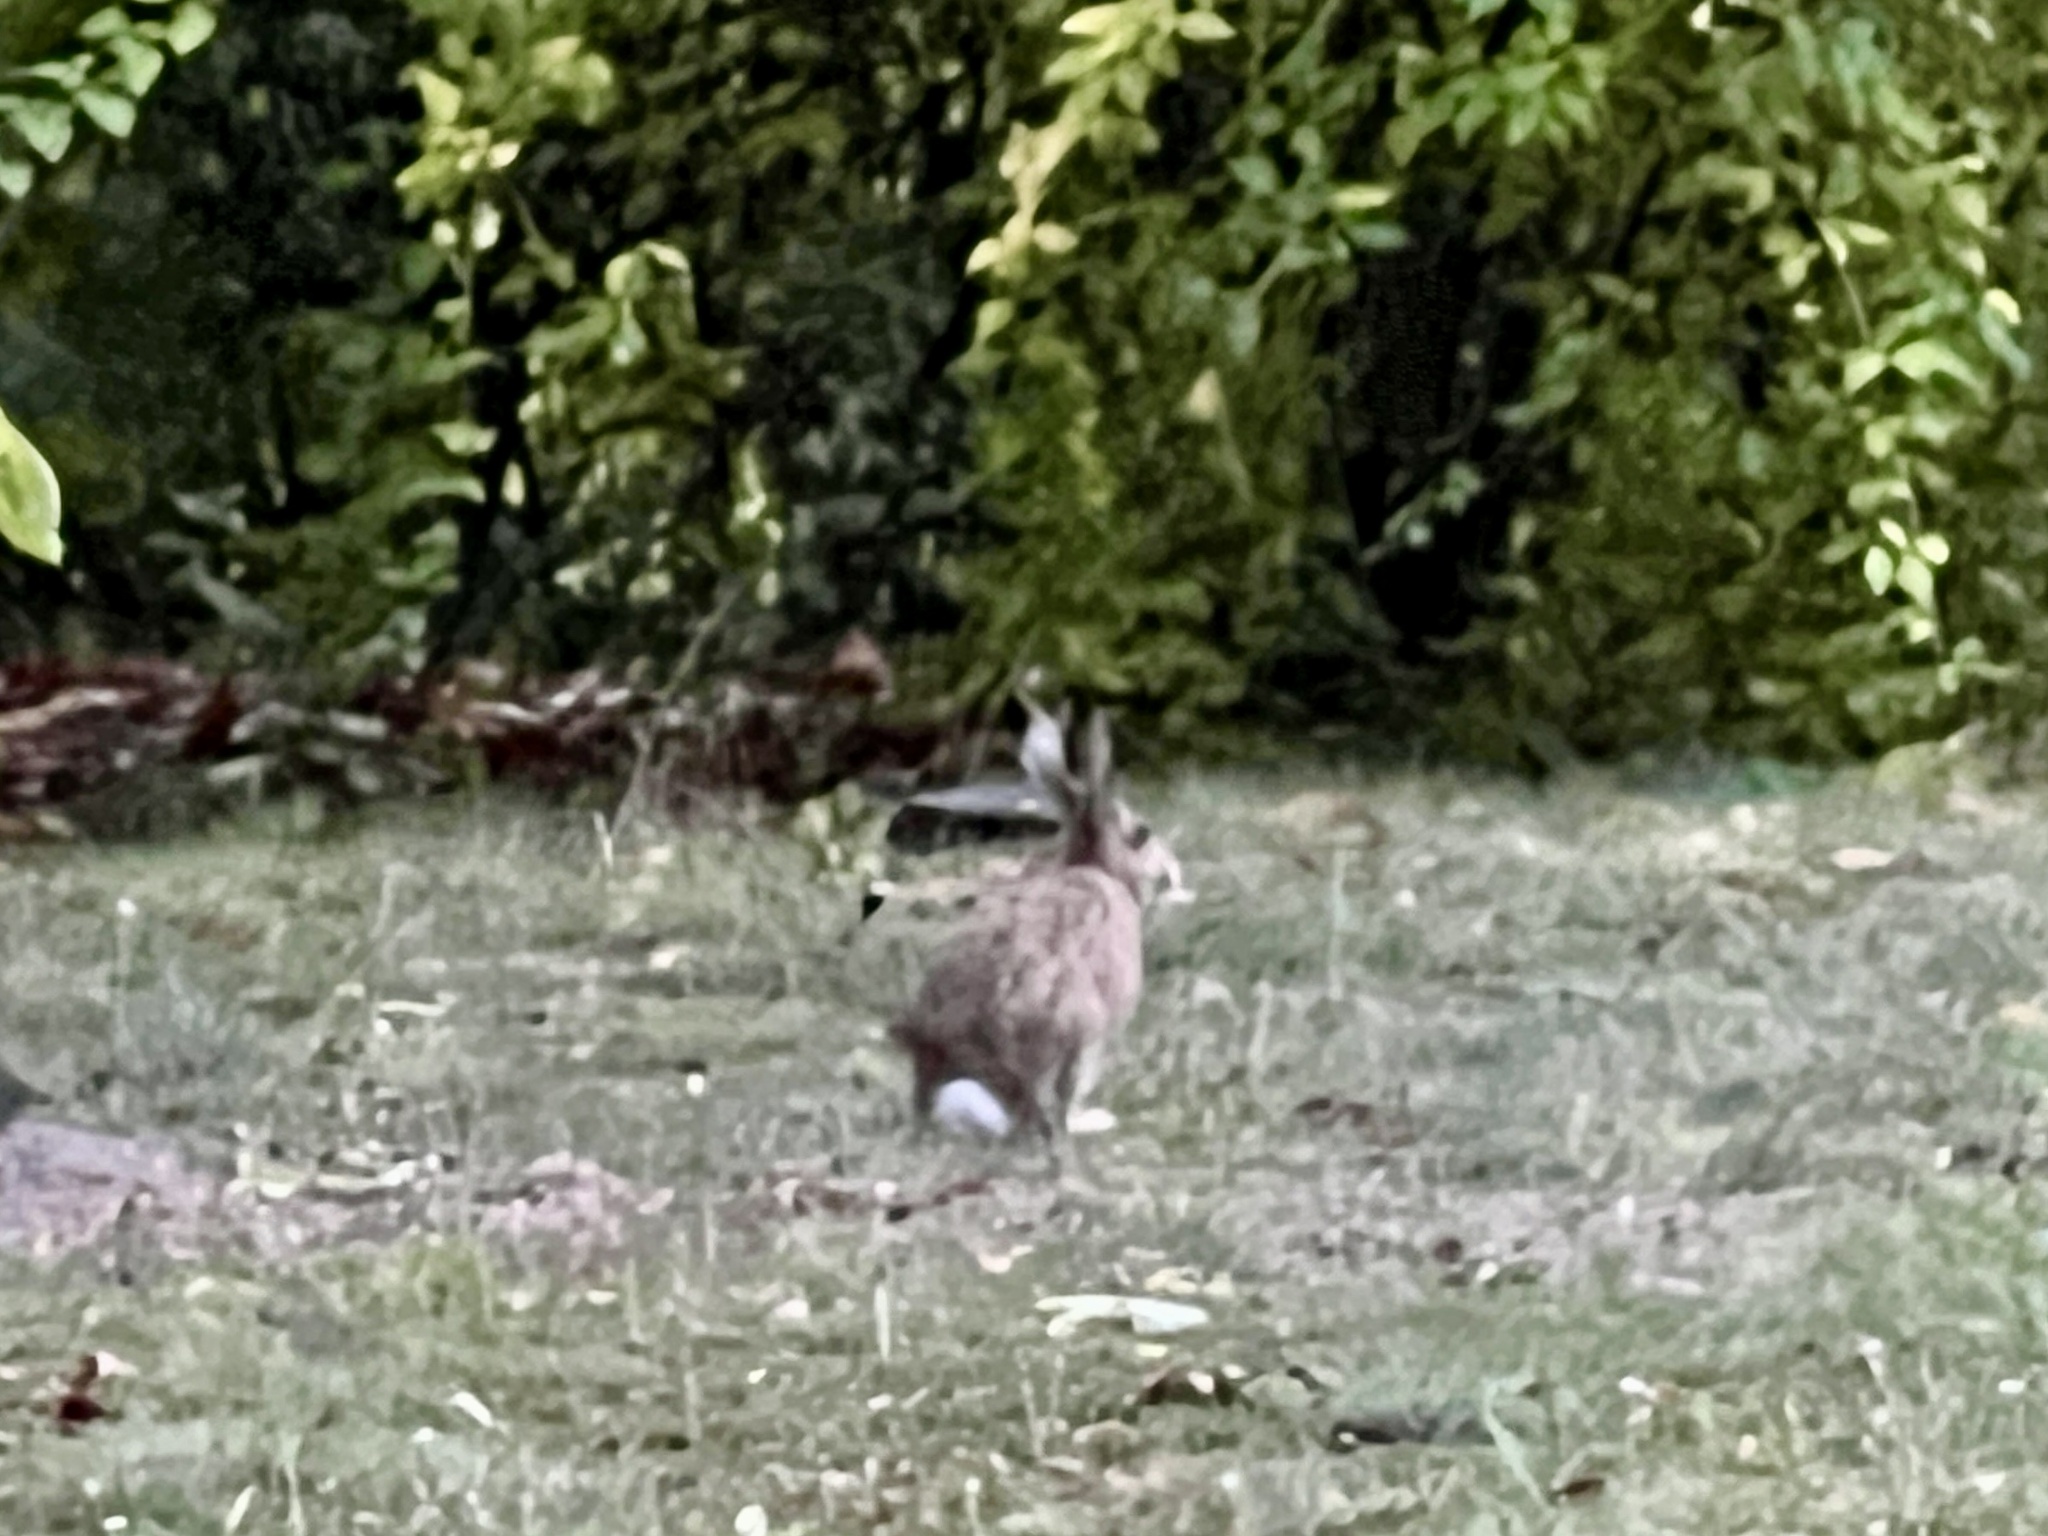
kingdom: Animalia
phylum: Chordata
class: Mammalia
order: Lagomorpha
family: Leporidae
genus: Lepus
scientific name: Lepus europaeus
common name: European hare
